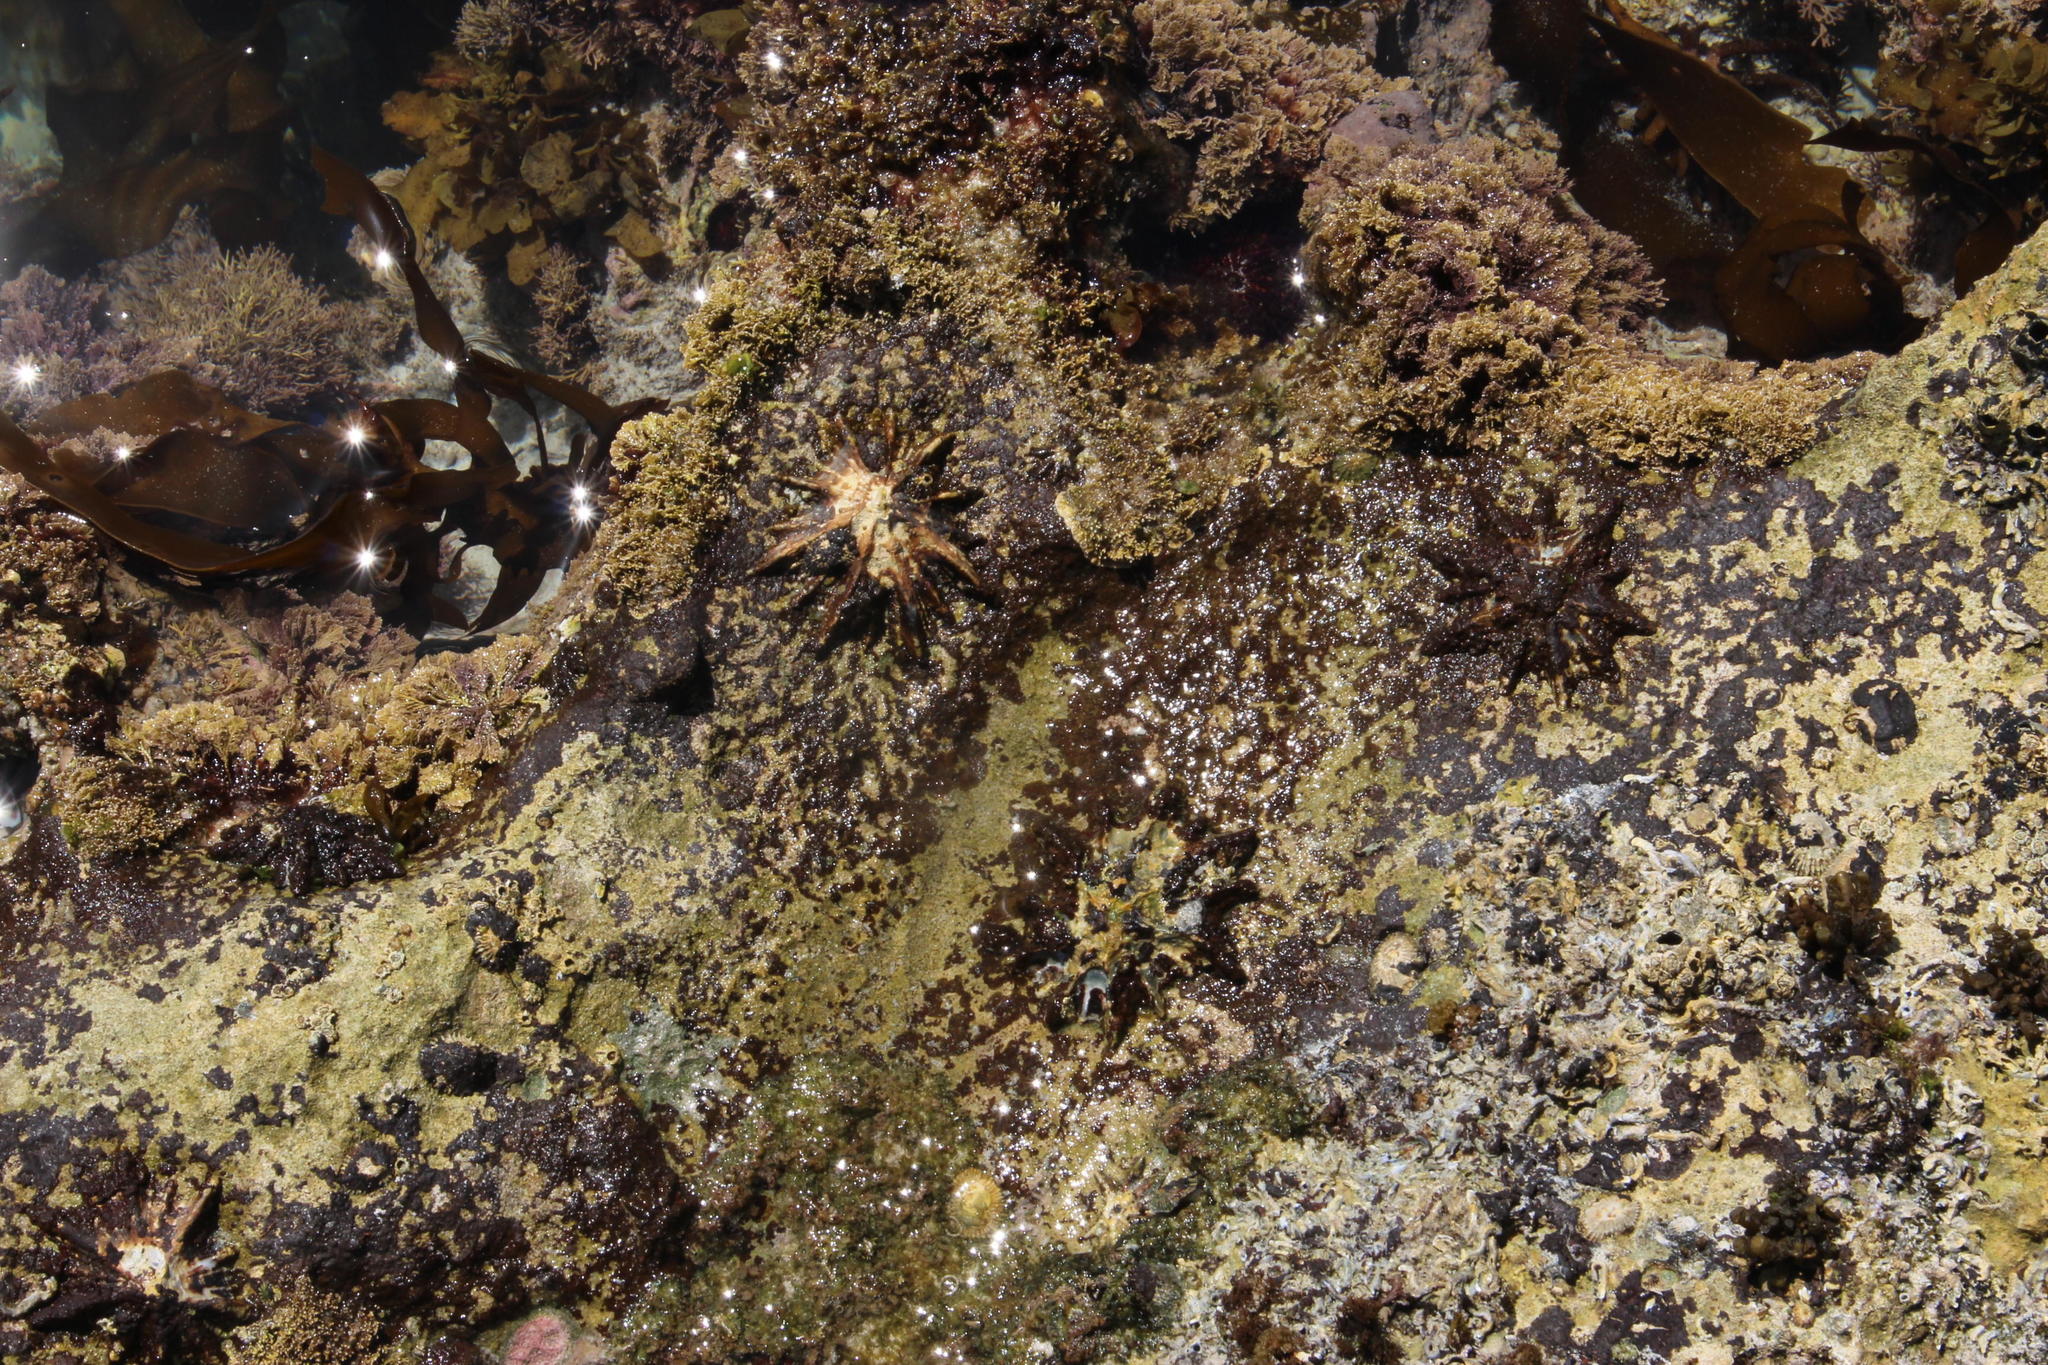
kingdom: Animalia
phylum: Mollusca
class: Gastropoda
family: Patellidae
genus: Scutellastra
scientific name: Scutellastra longicosta
